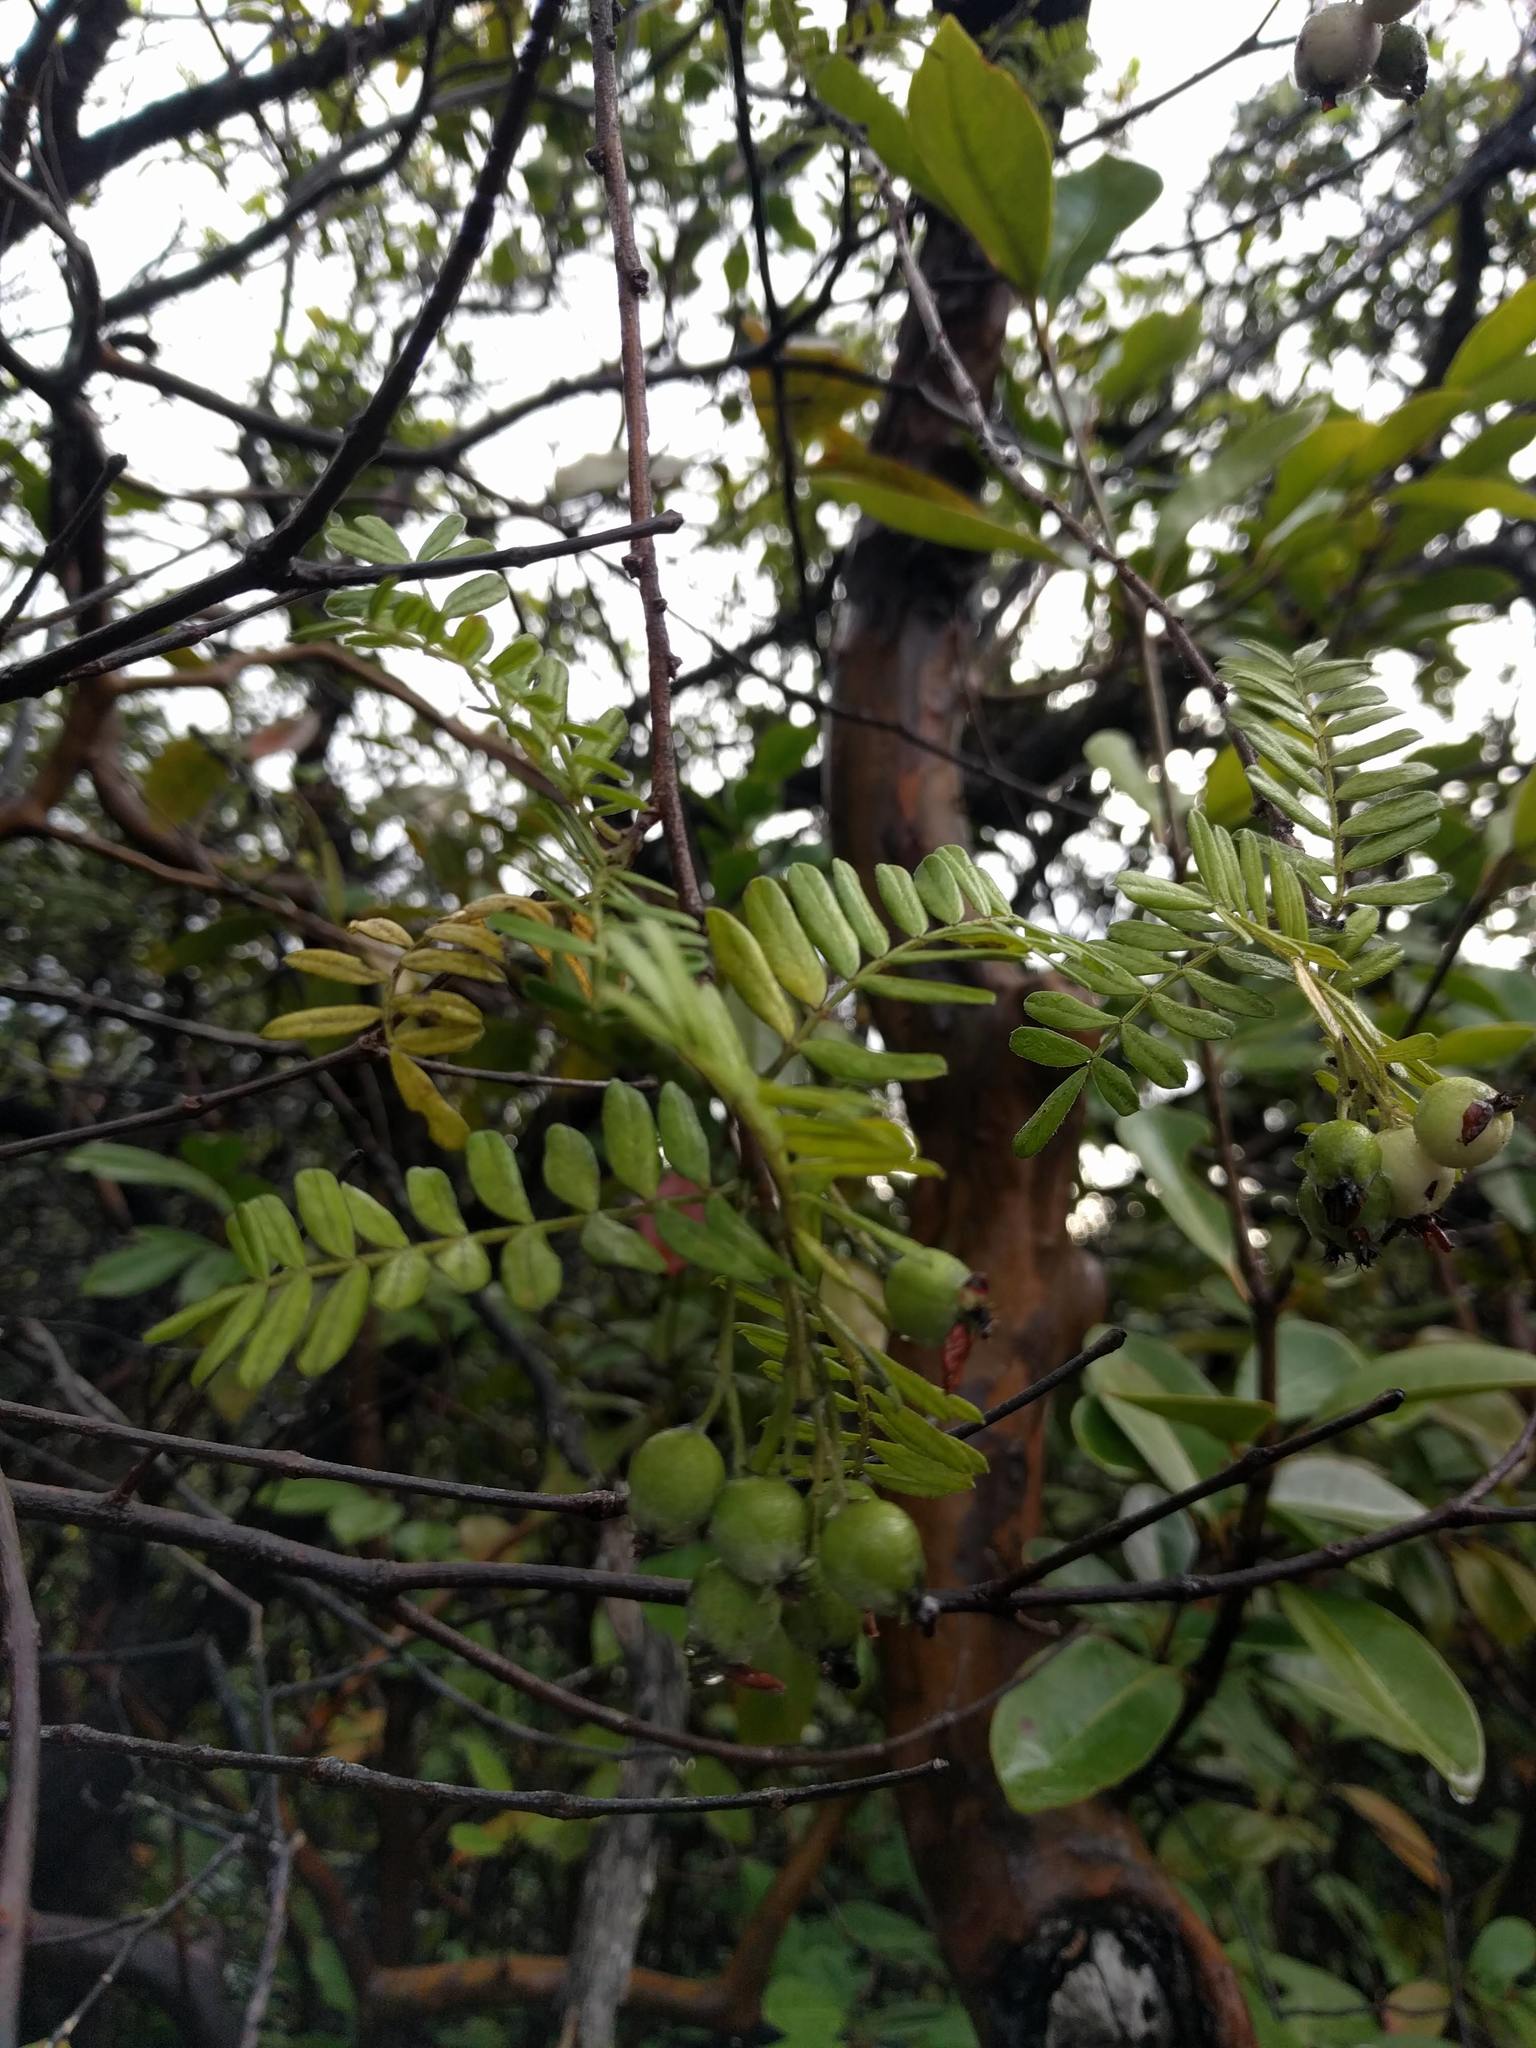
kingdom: Plantae
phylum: Tracheophyta
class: Magnoliopsida
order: Rosales
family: Rosaceae
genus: Osteomeles
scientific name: Osteomeles anthyllidifolia
